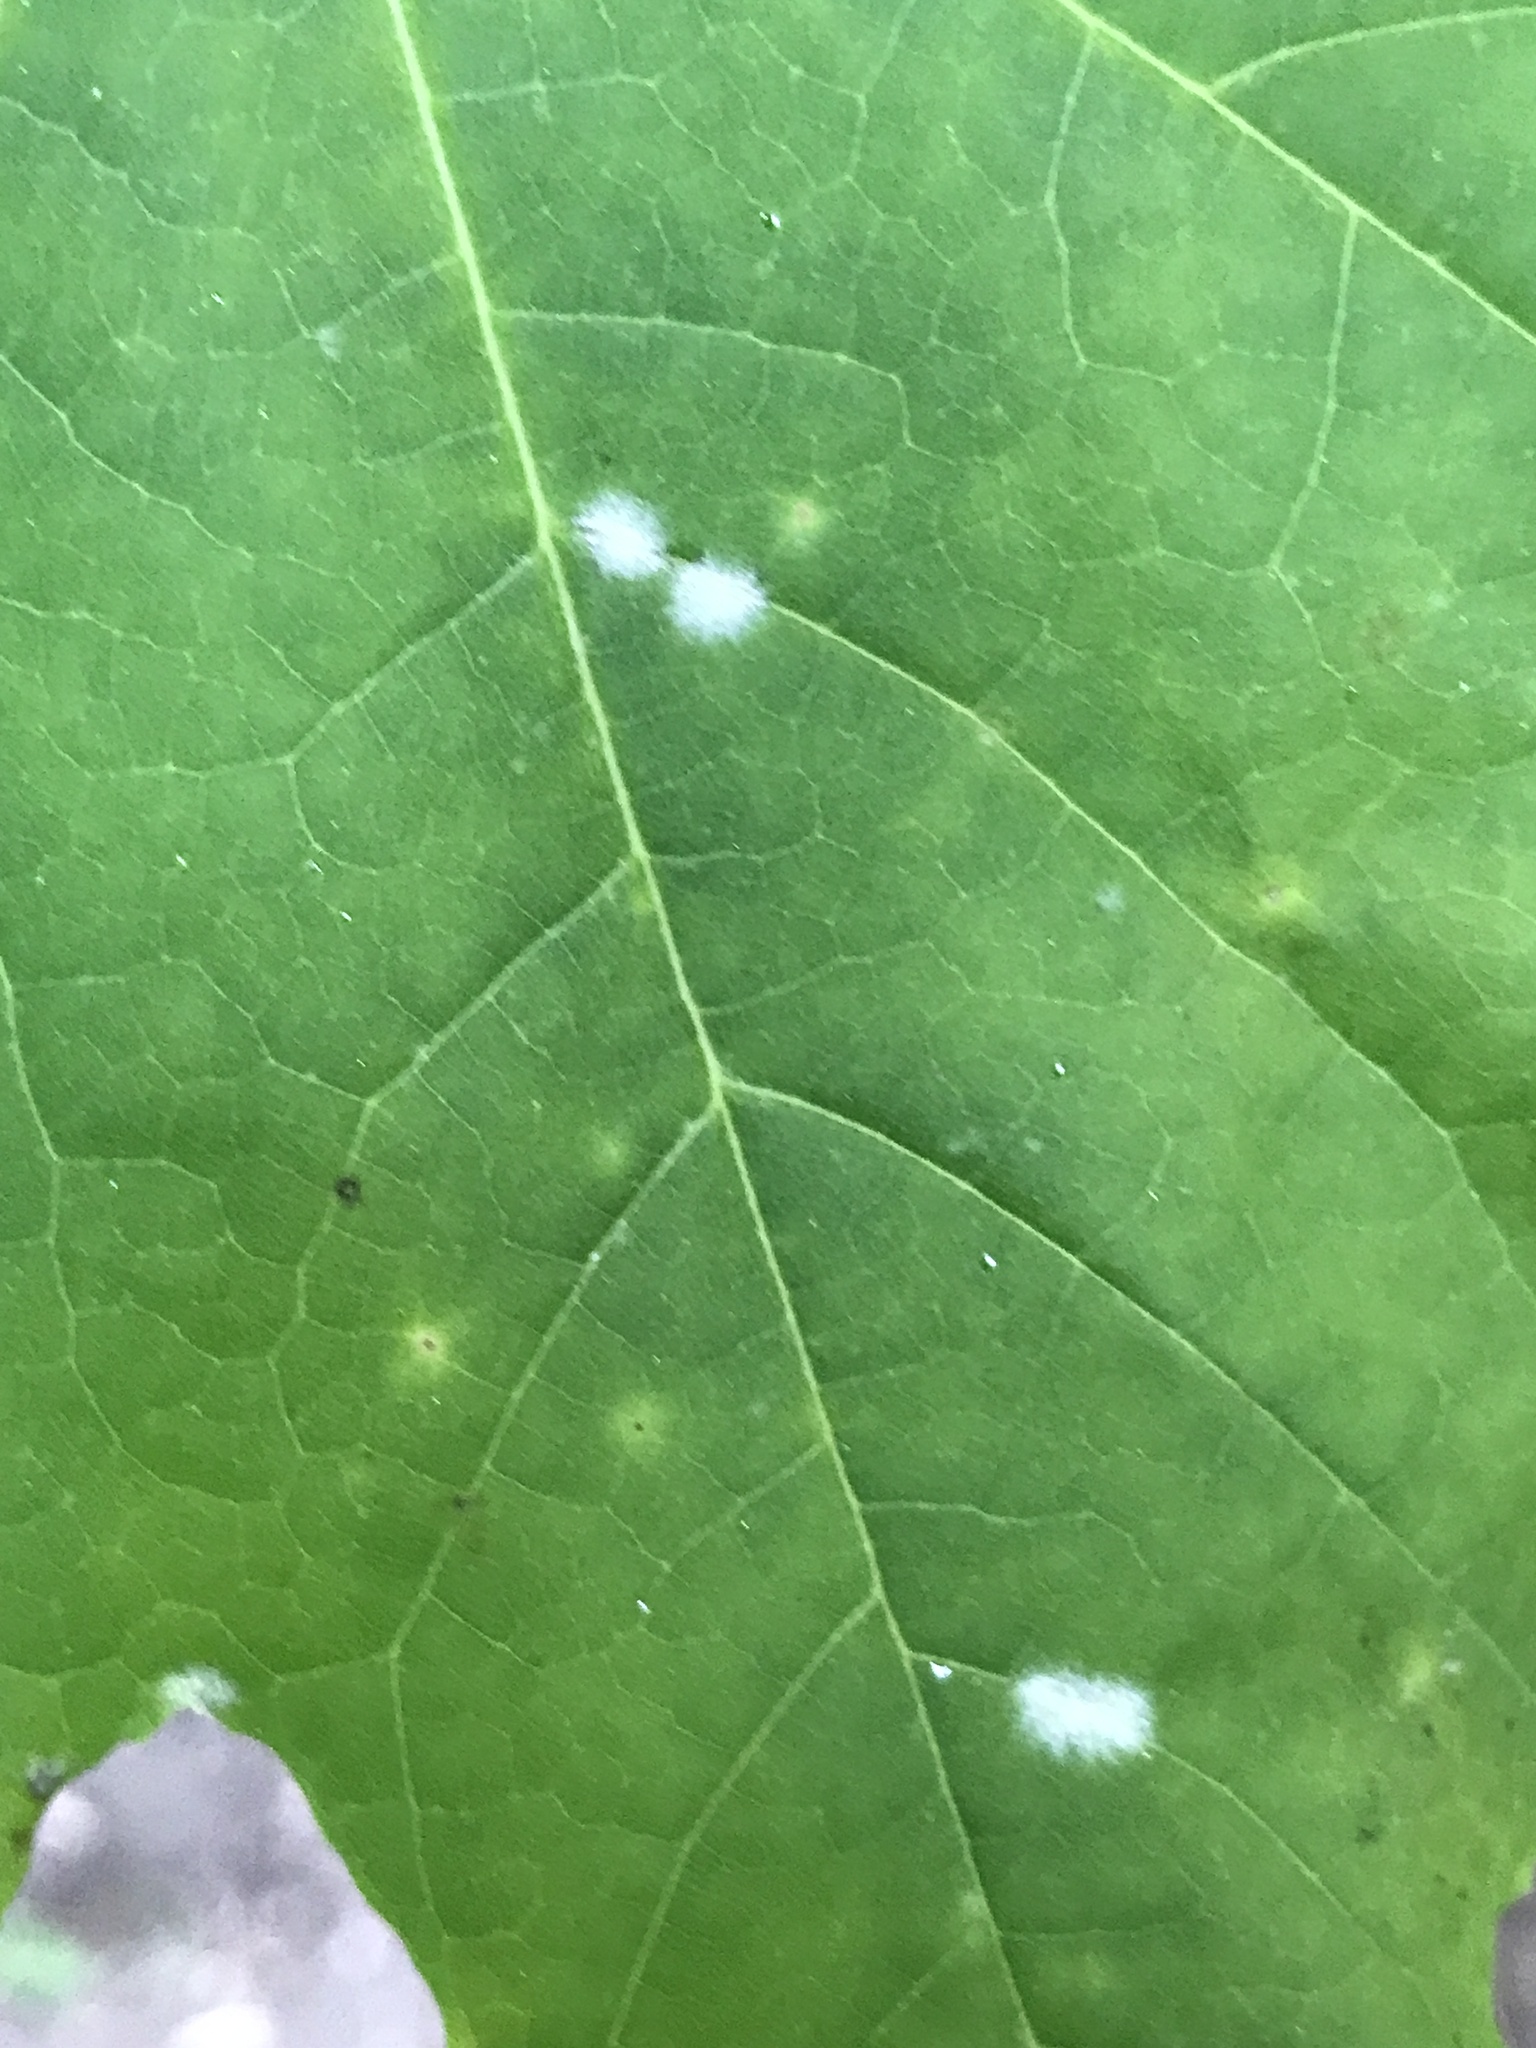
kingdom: Fungi
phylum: Ascomycota
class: Leotiomycetes
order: Helotiales
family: Erysiphaceae
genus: Sawadaea
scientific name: Sawadaea tulasnei
